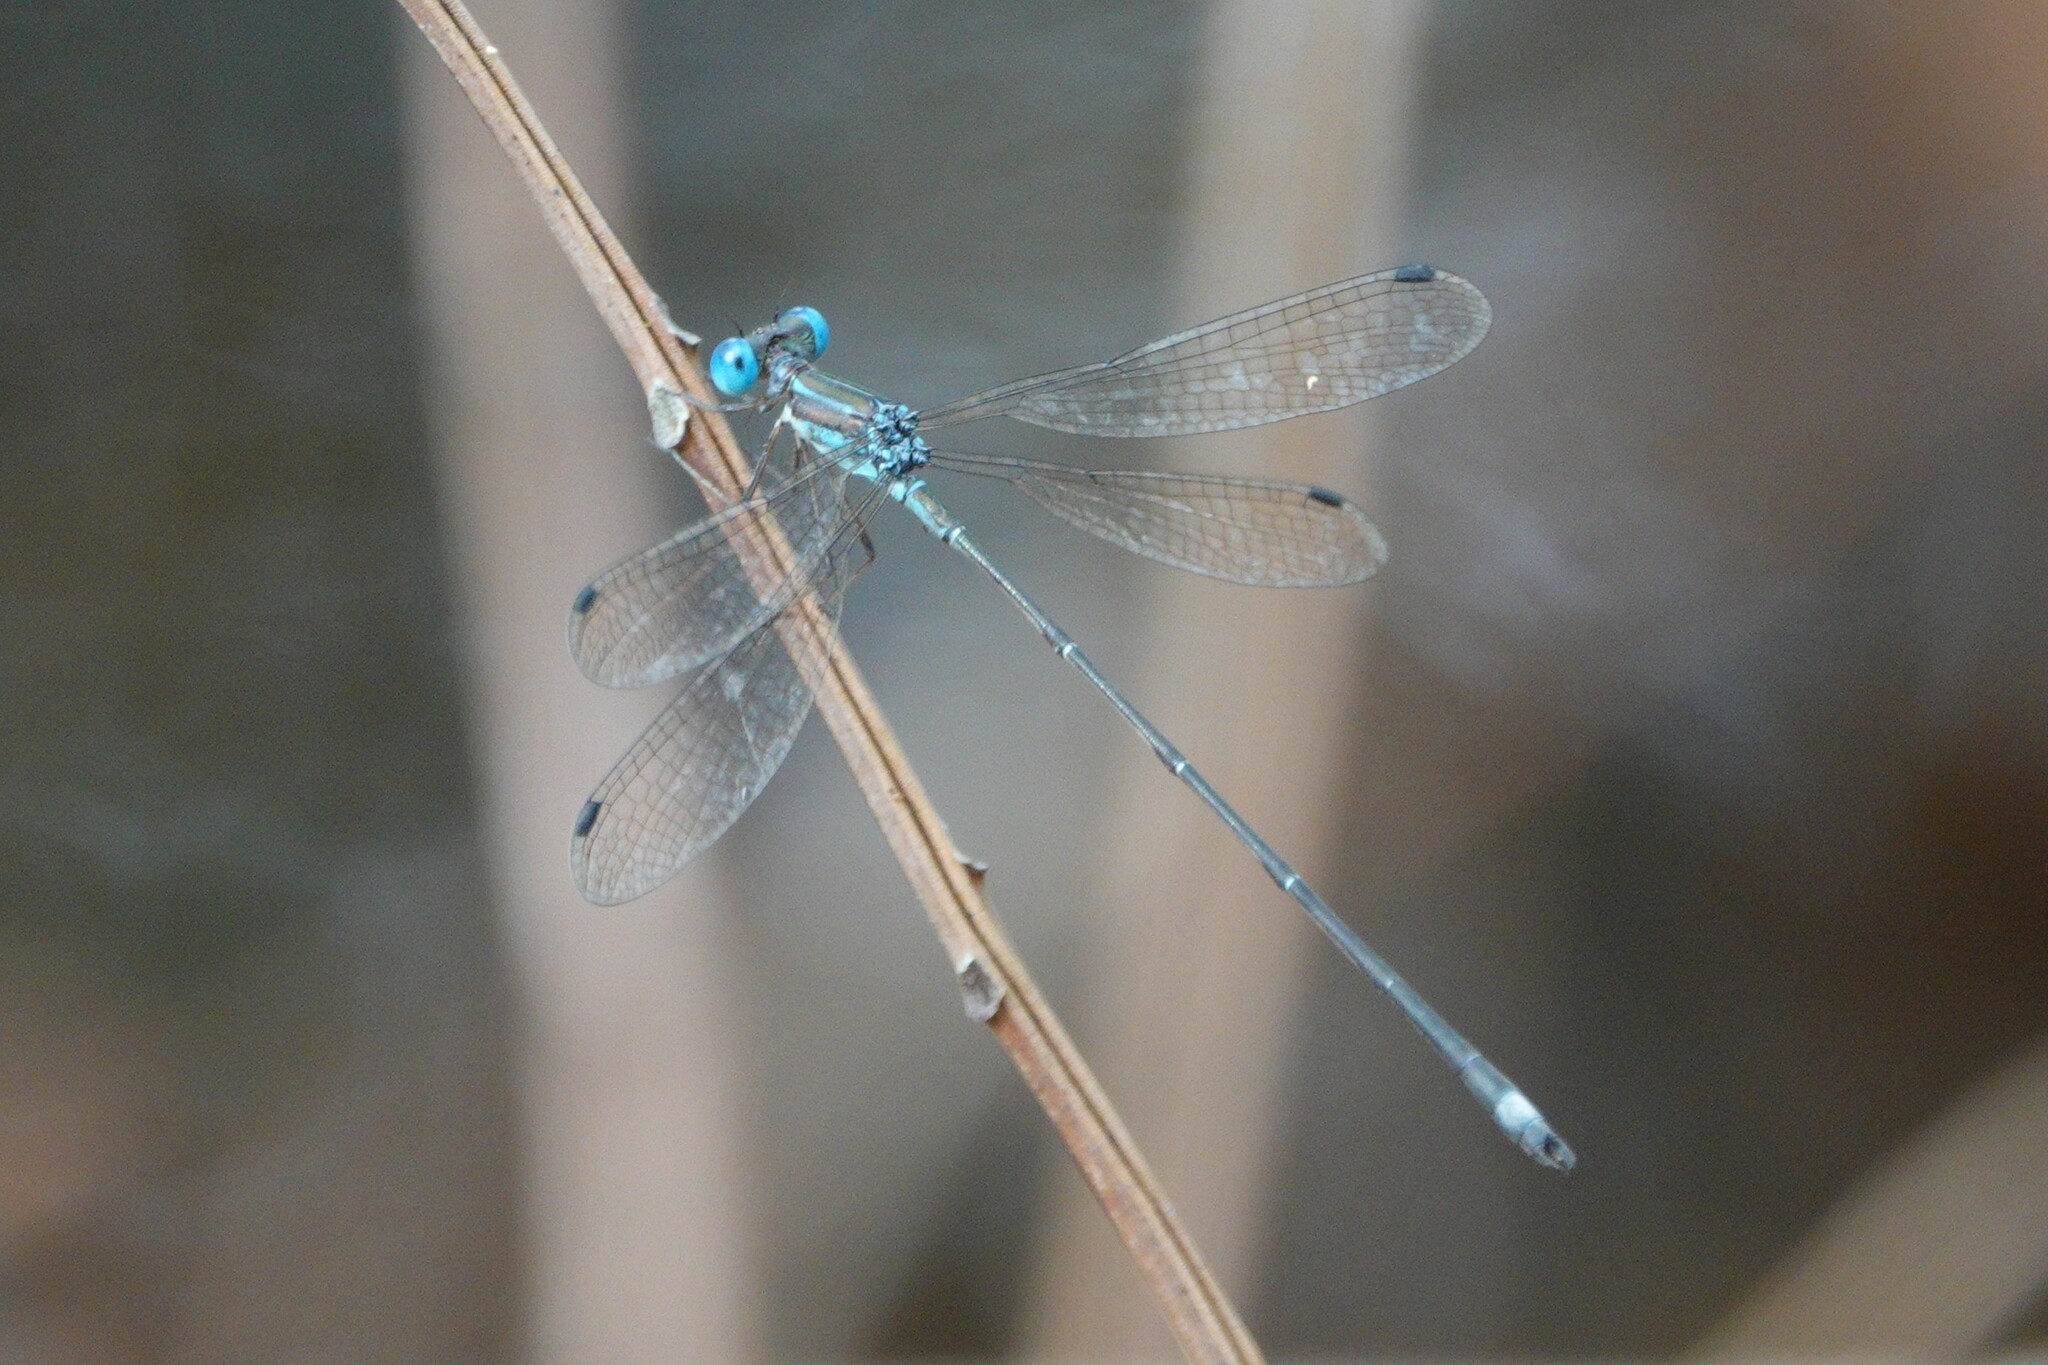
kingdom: Animalia
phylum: Arthropoda
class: Insecta
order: Odonata
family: Lestidae
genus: Lestes
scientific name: Lestes tenuatus
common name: Blue-striped spreadwing
